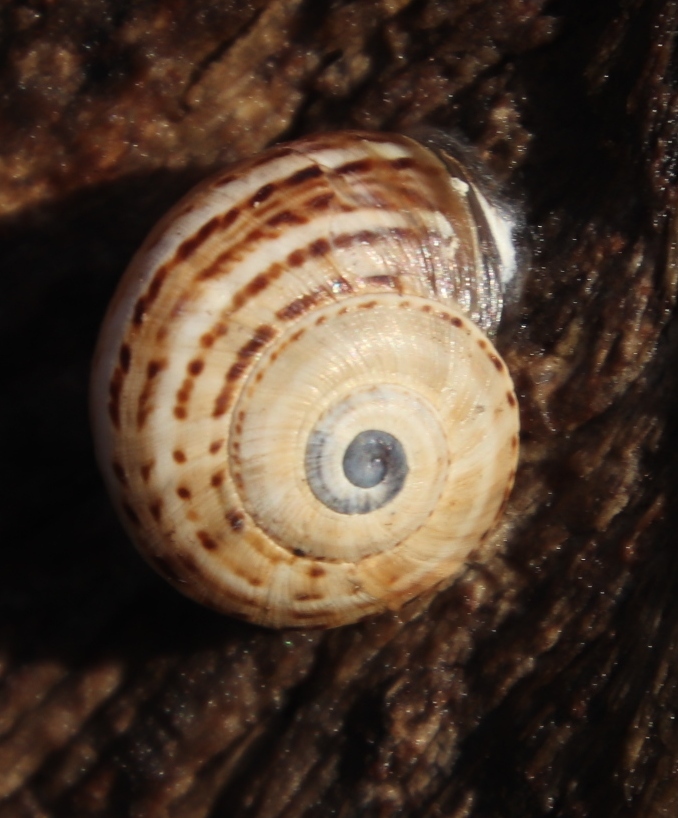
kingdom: Animalia
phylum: Mollusca
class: Gastropoda
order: Stylommatophora
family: Helicidae
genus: Theba
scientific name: Theba pisana
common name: White snail
